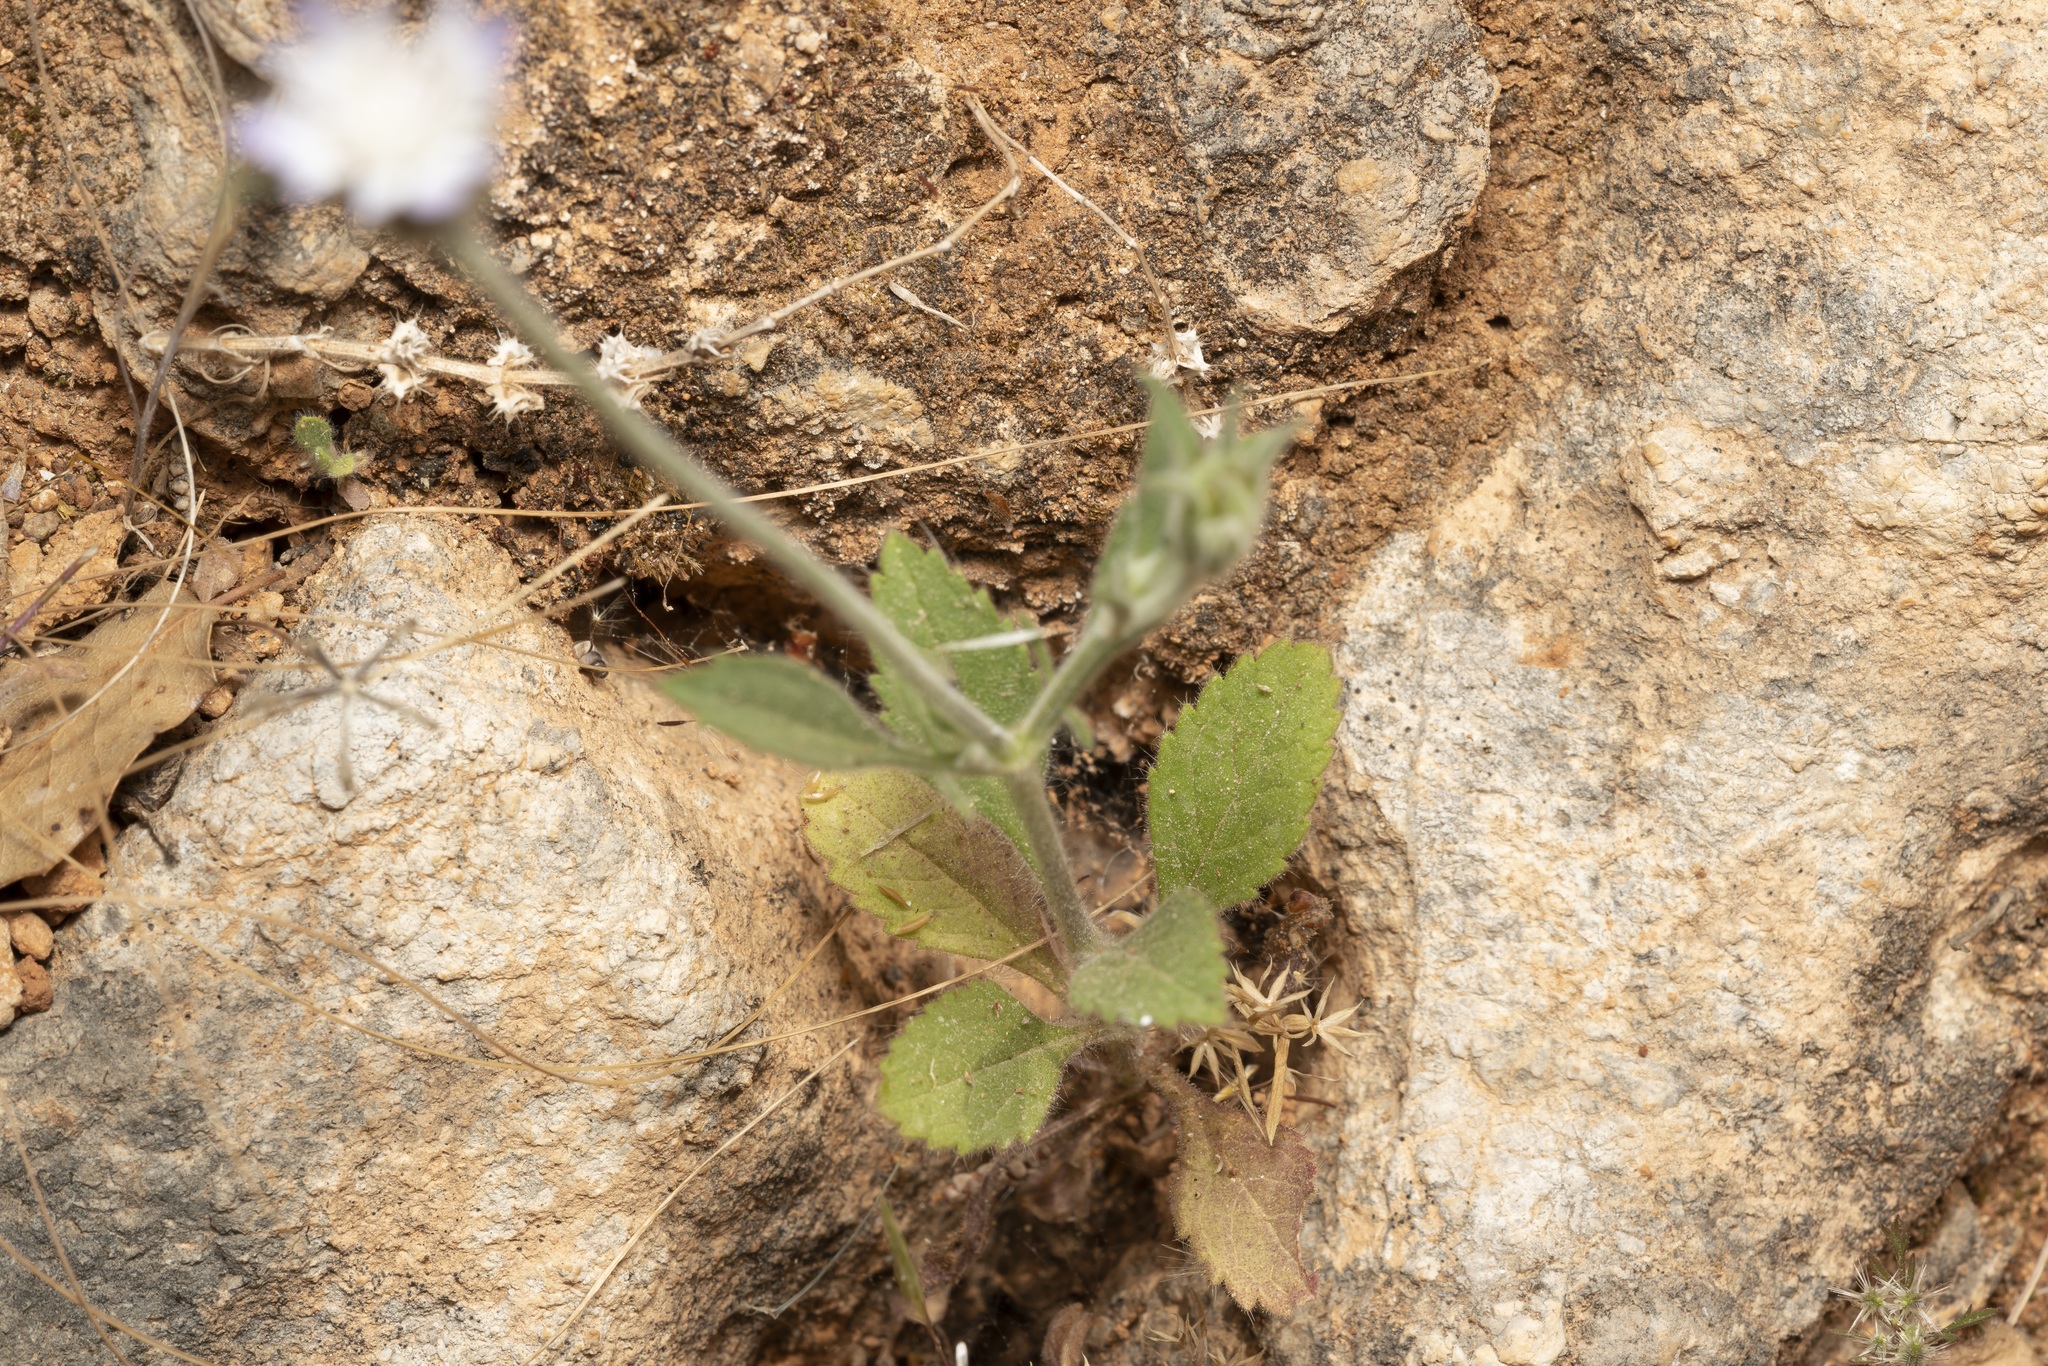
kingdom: Plantae
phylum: Tracheophyta
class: Magnoliopsida
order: Dipsacales
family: Caprifoliaceae
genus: Pterocephalus
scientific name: Pterocephalus plumosus
